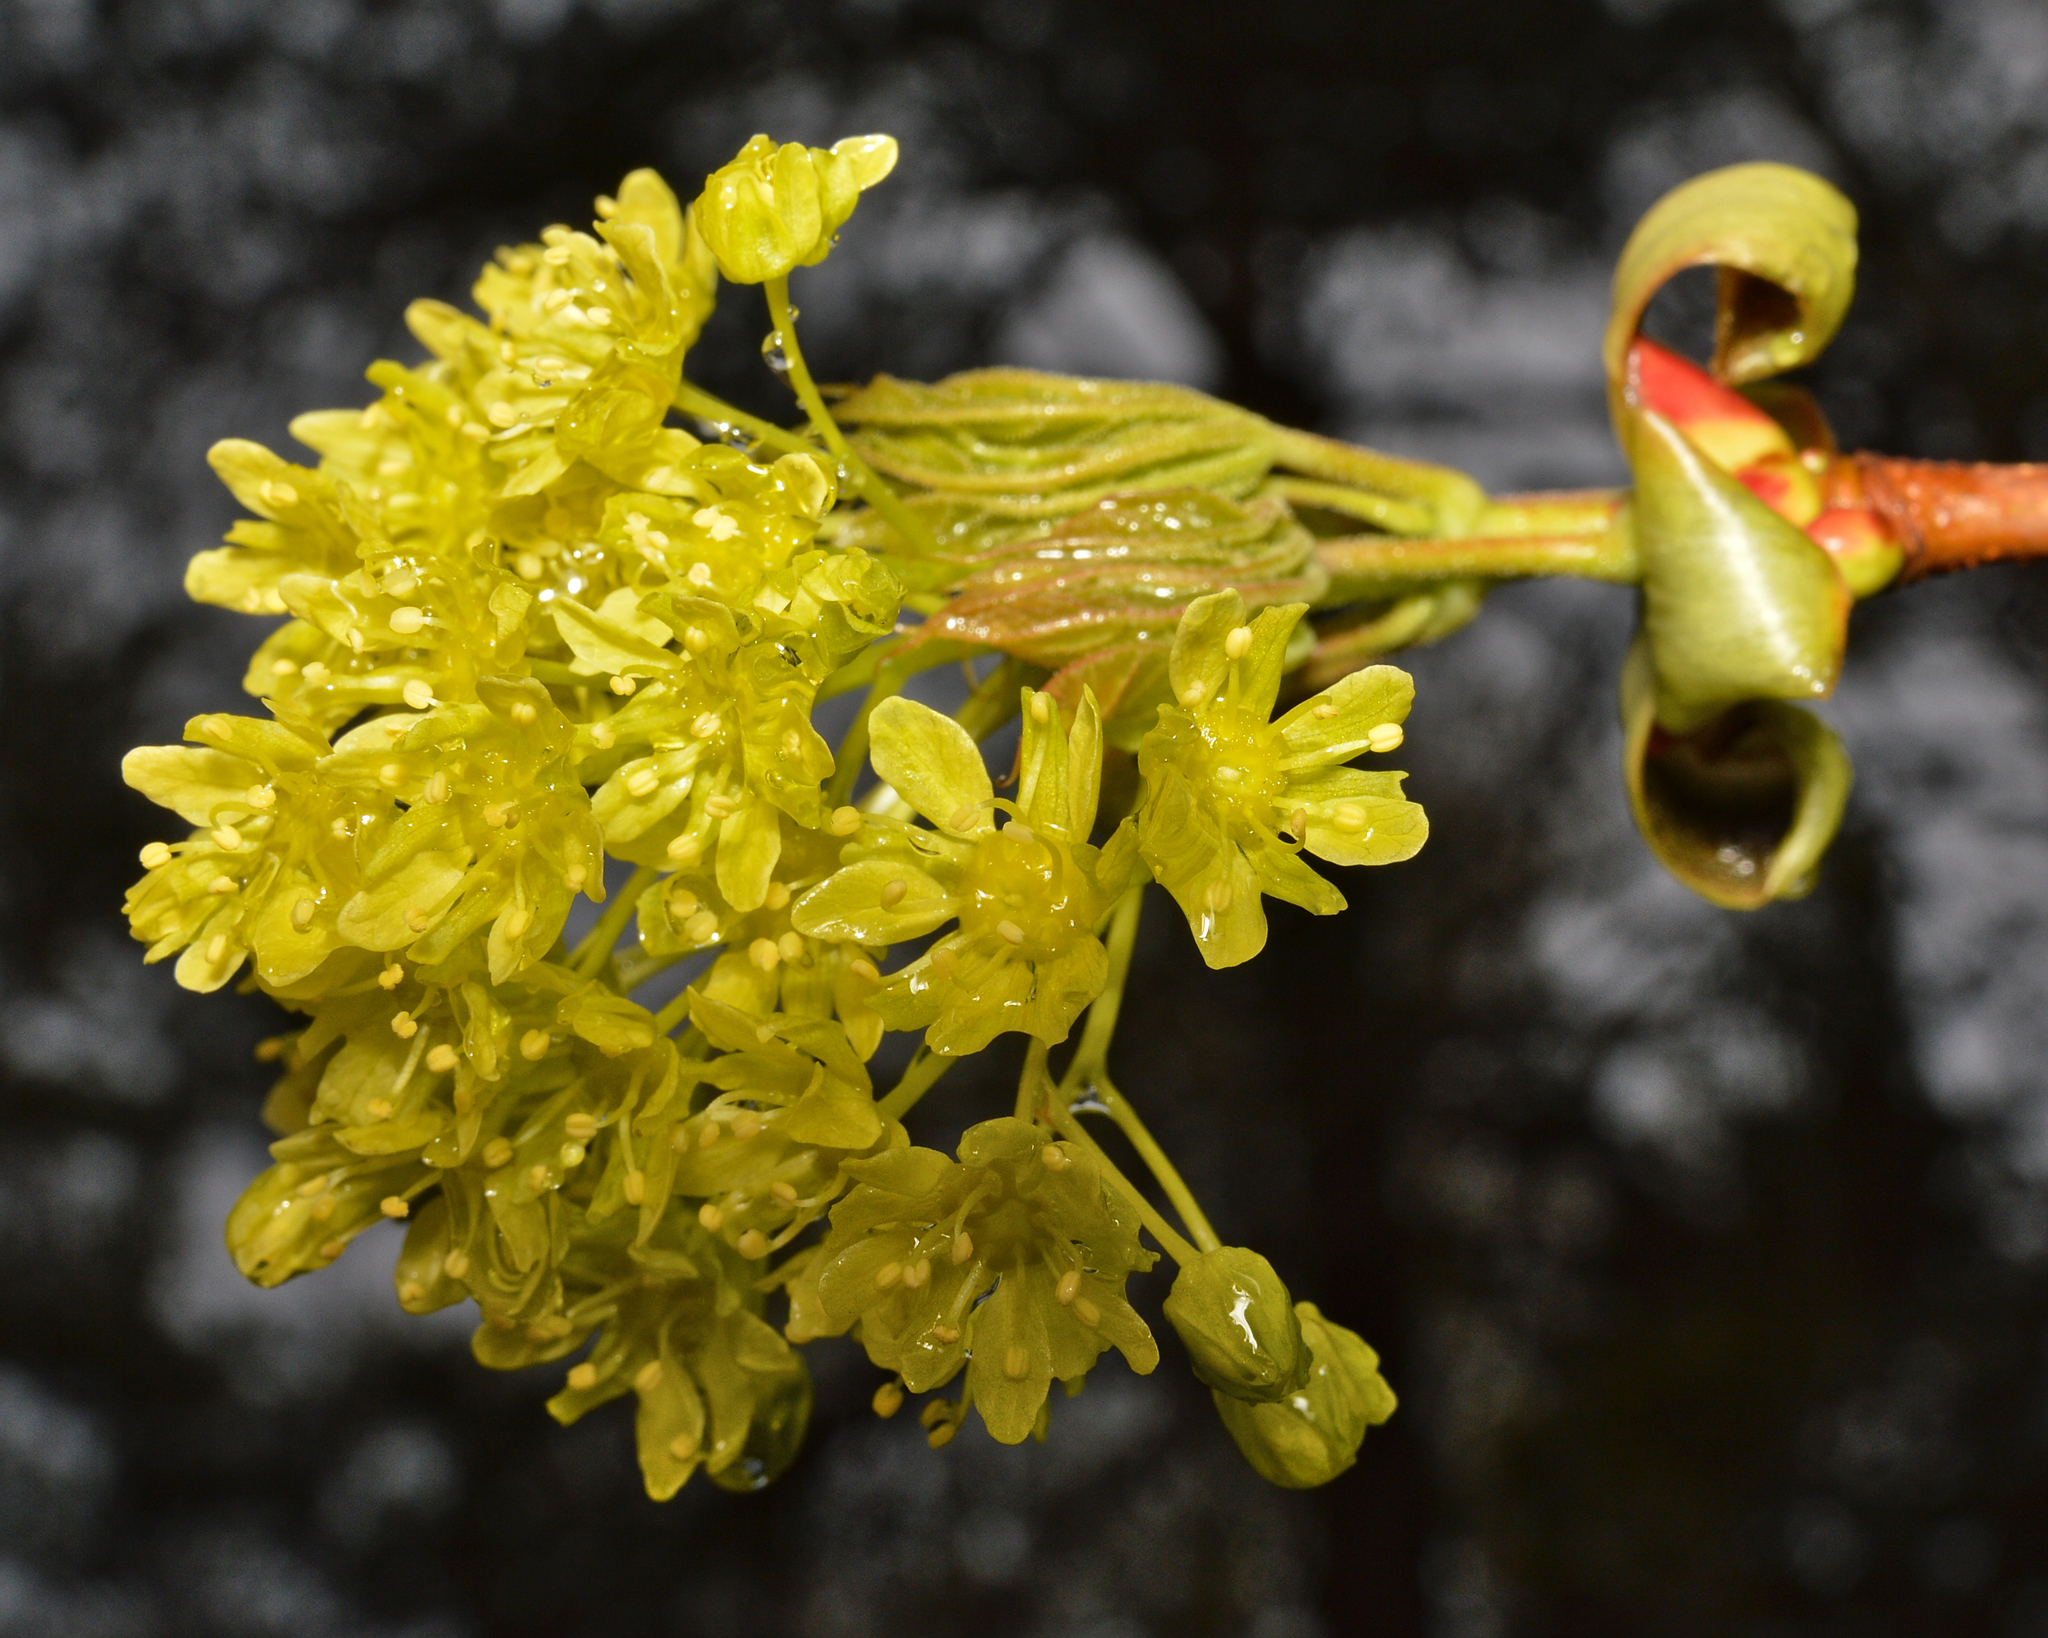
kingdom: Plantae
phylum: Tracheophyta
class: Magnoliopsida
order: Sapindales
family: Sapindaceae
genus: Acer
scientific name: Acer platanoides
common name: Norway maple
